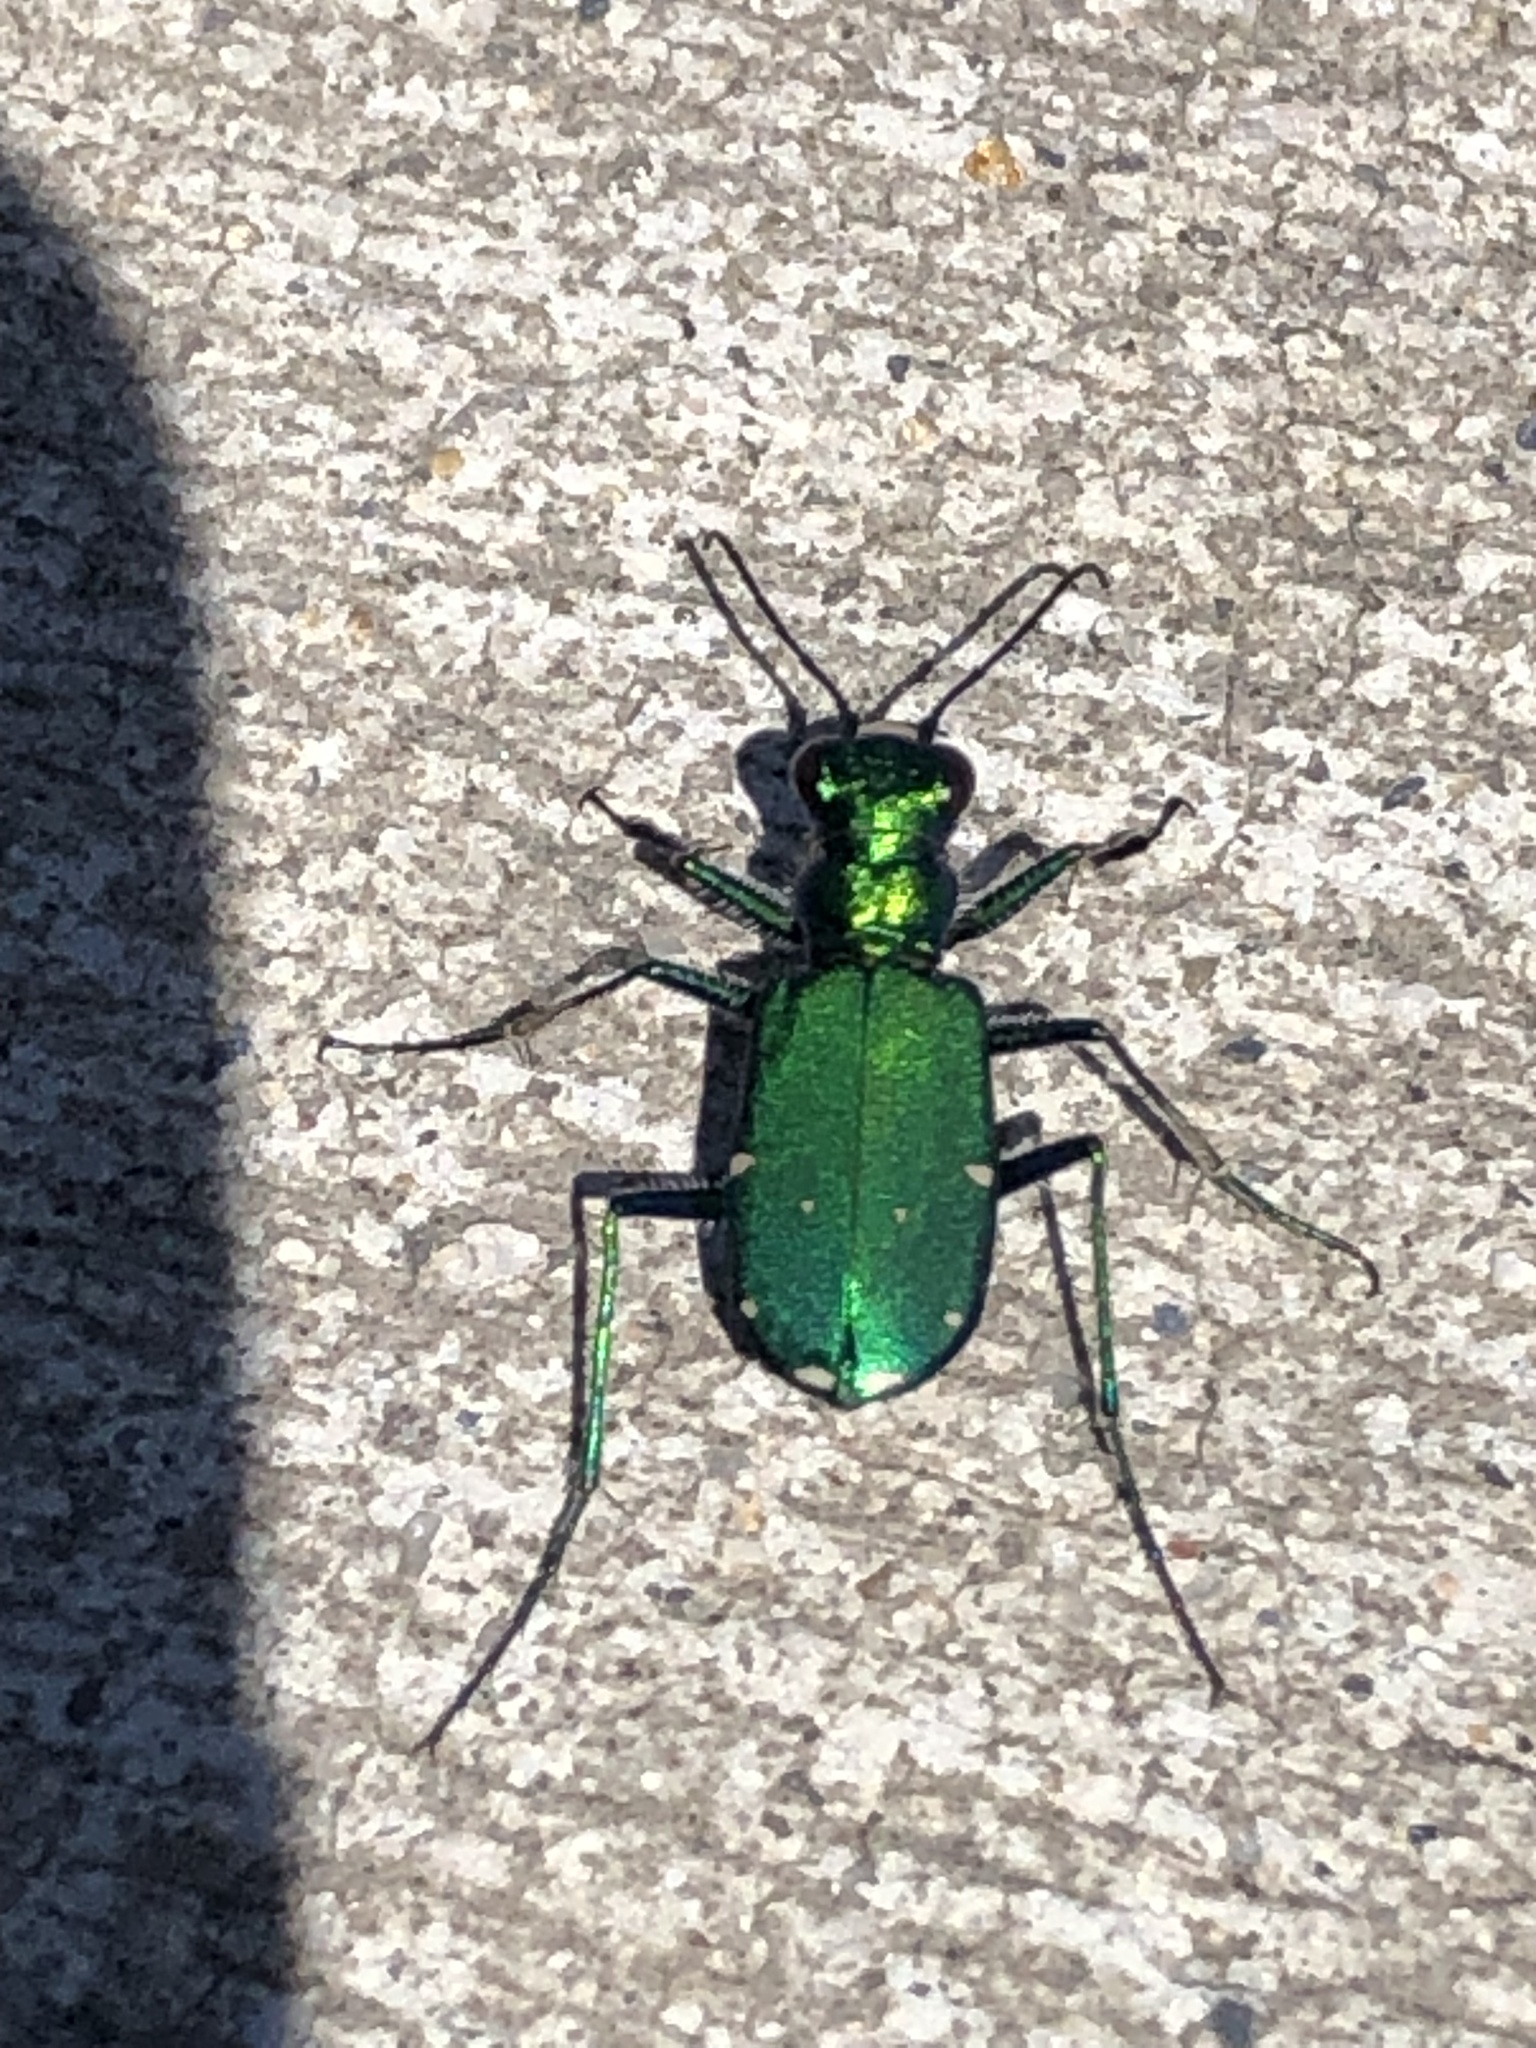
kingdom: Animalia
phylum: Arthropoda
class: Insecta
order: Coleoptera
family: Carabidae
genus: Cicindela
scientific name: Cicindela sexguttata
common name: Six-spotted tiger beetle
